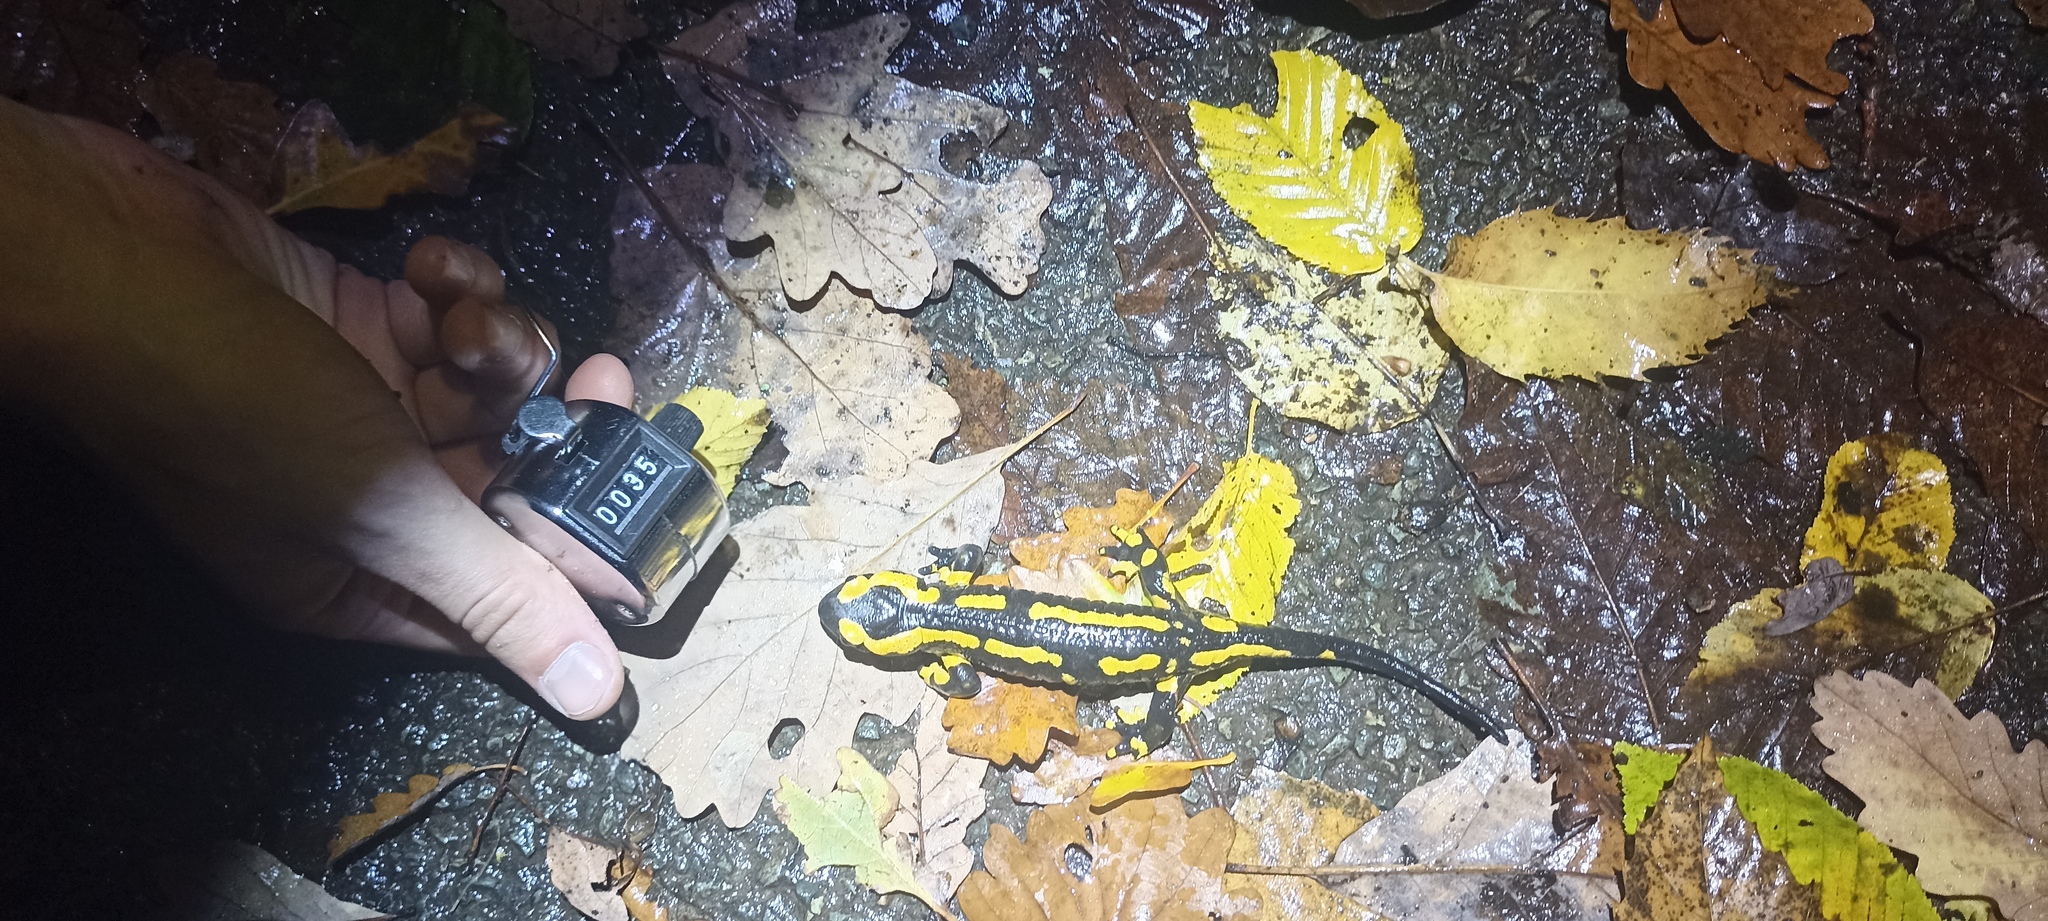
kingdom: Animalia
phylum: Chordata
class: Amphibia
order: Caudata
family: Salamandridae
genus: Salamandra
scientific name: Salamandra salamandra
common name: Fire salamander
